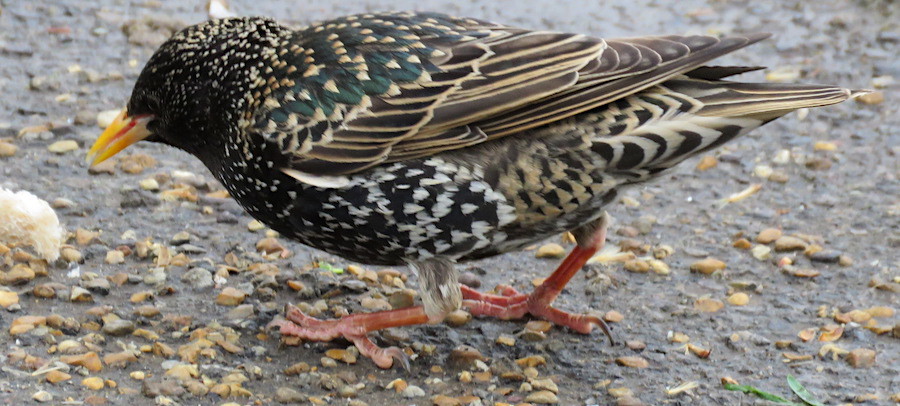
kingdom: Animalia
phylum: Chordata
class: Aves
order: Passeriformes
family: Sturnidae
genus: Sturnus
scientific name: Sturnus vulgaris
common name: Common starling
